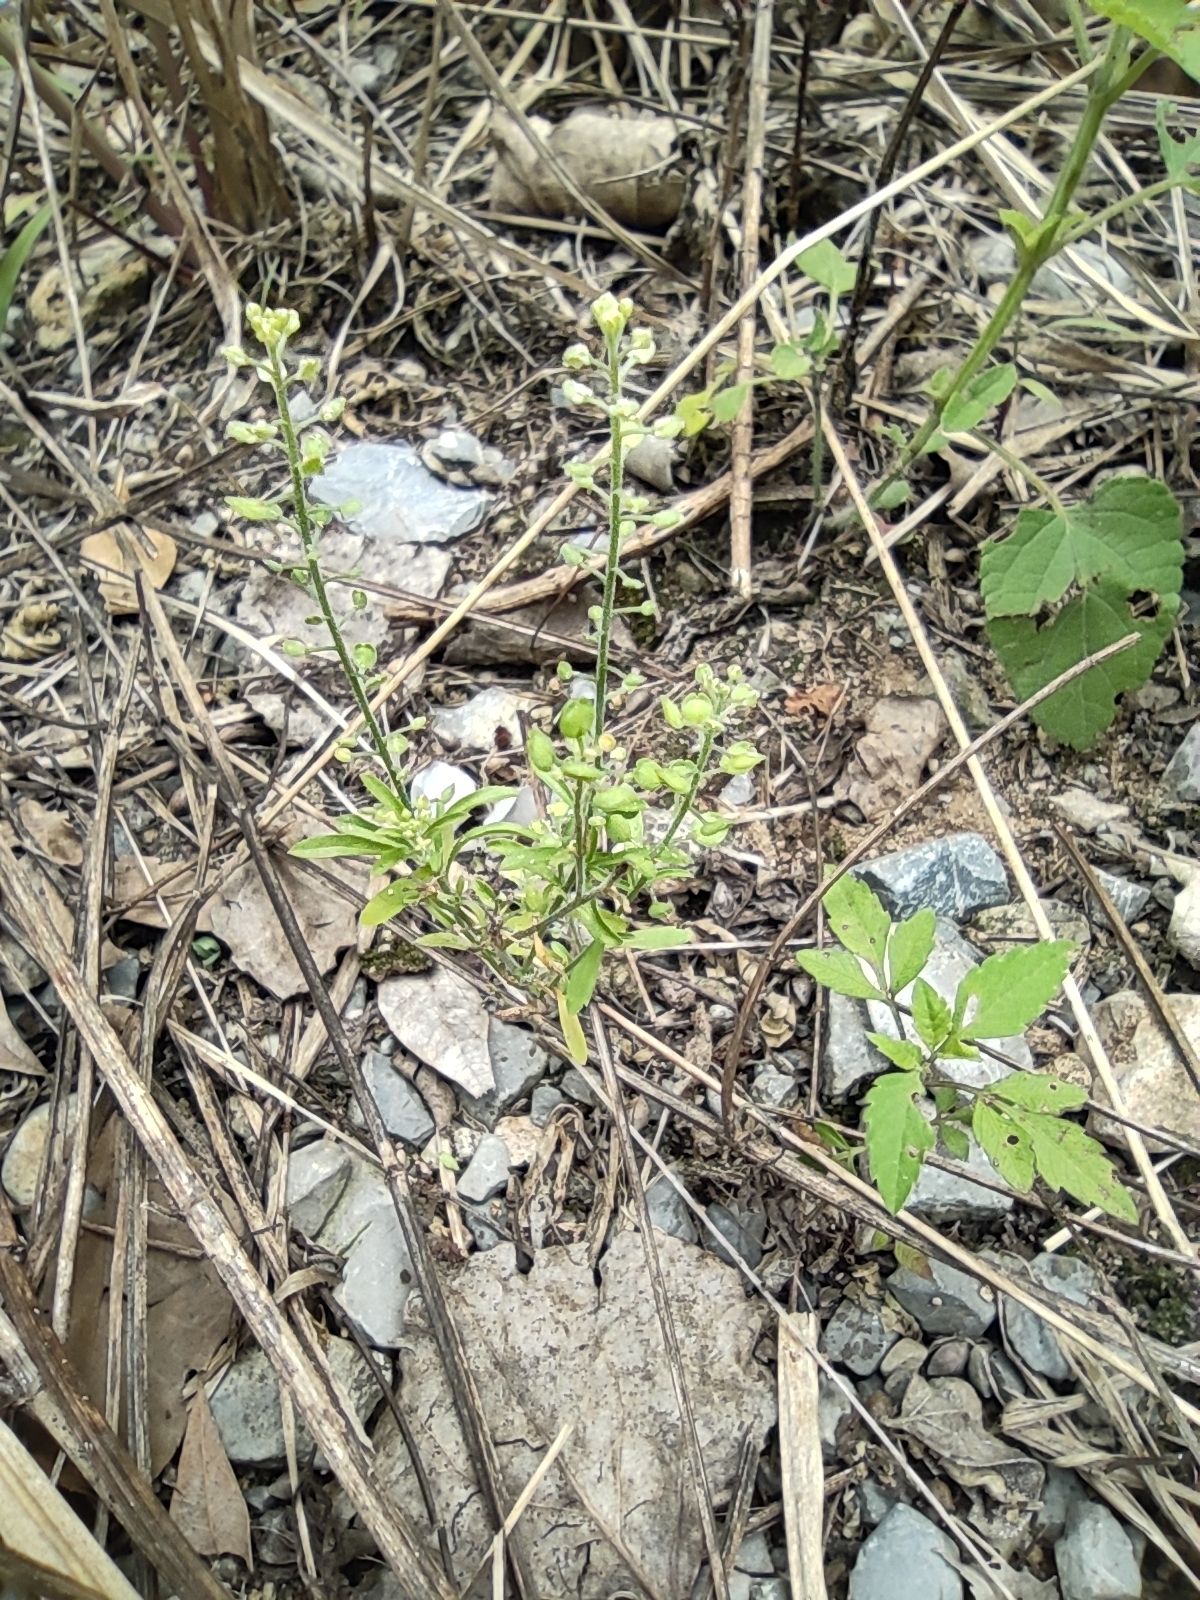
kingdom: Plantae
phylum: Tracheophyta
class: Magnoliopsida
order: Brassicales
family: Brassicaceae
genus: Lepidium
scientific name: Lepidium virginicum
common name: Least pepperwort
